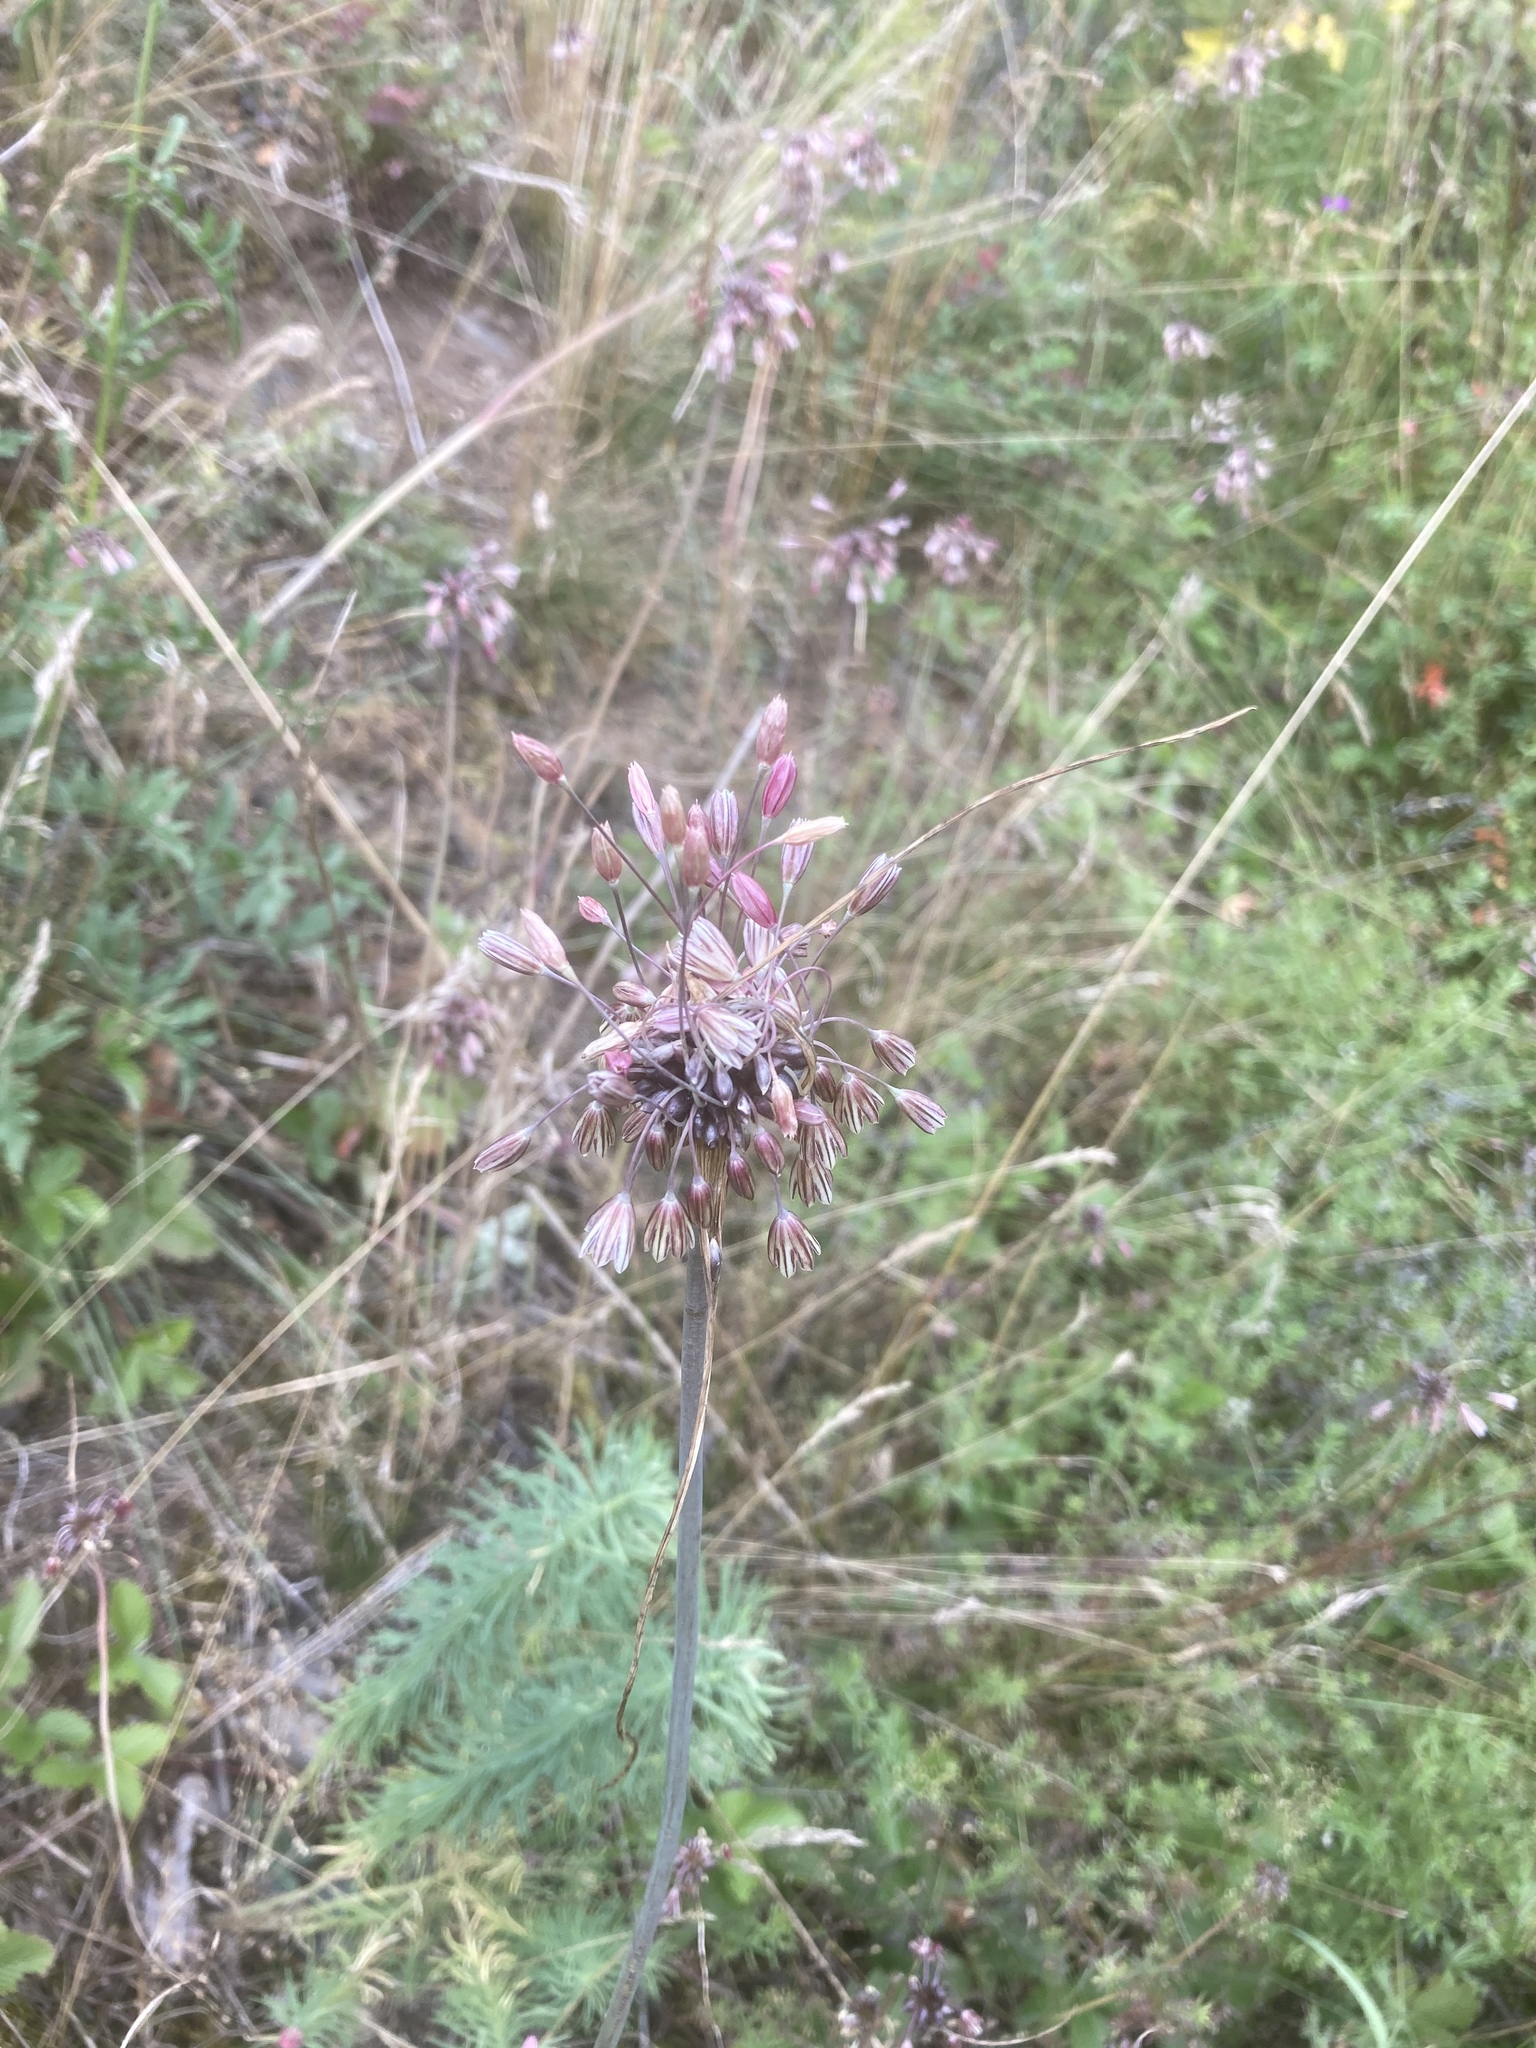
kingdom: Plantae
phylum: Tracheophyta
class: Liliopsida
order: Asparagales
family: Amaryllidaceae
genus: Allium
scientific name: Allium oleraceum
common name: Field garlic
